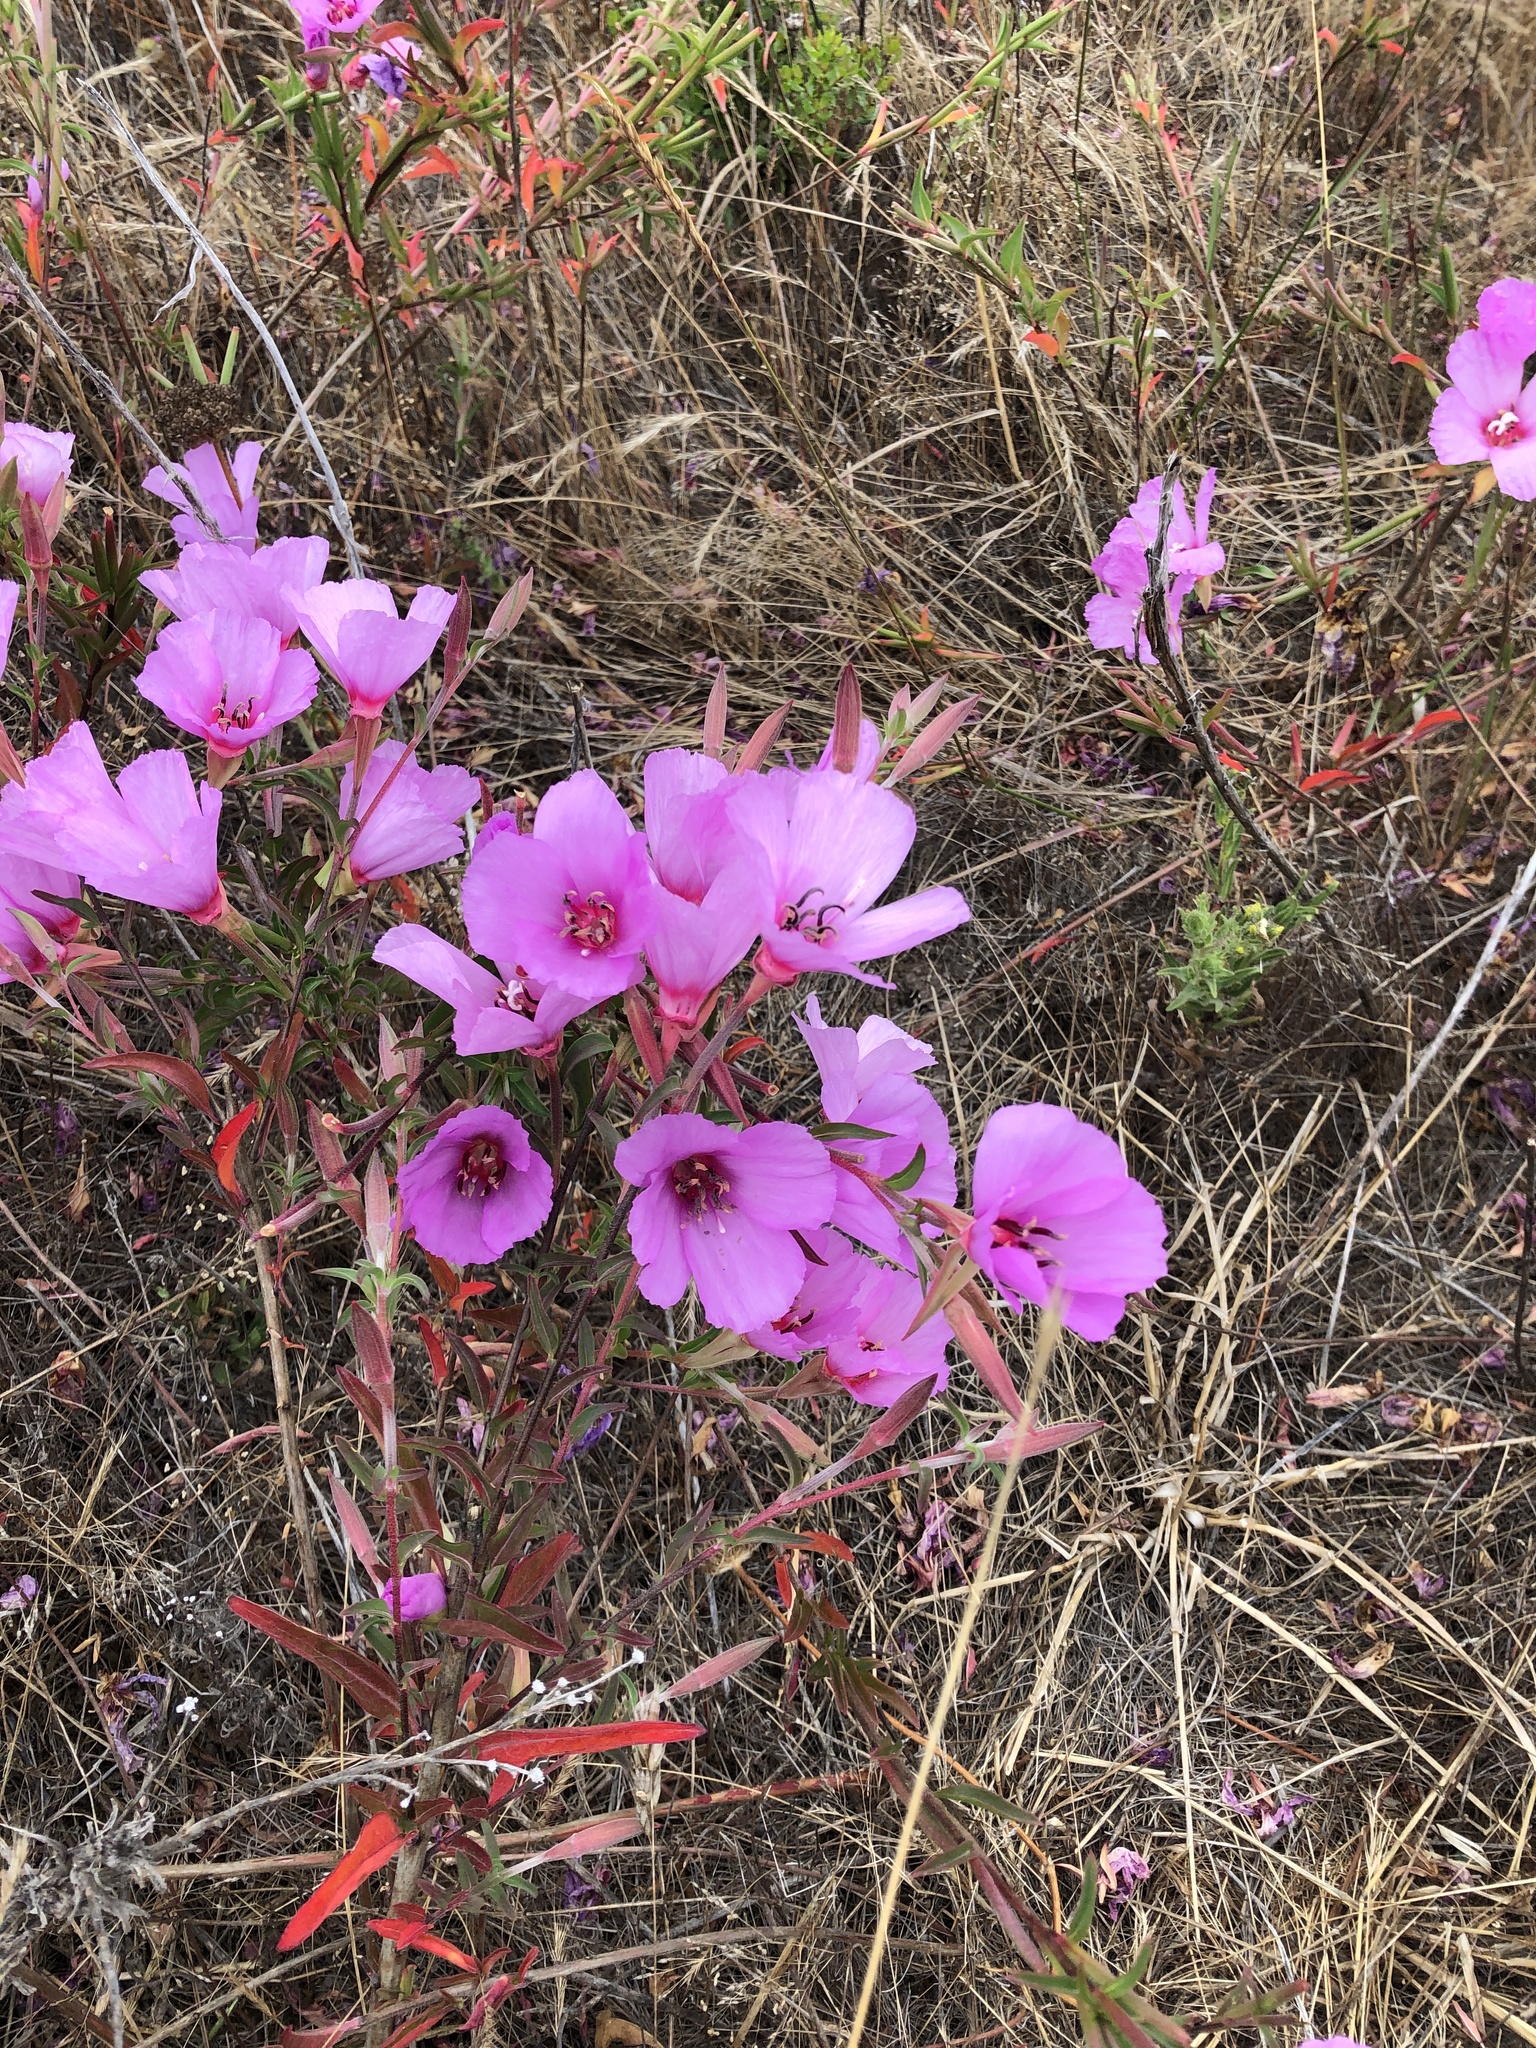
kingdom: Plantae
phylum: Tracheophyta
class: Magnoliopsida
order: Myrtales
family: Onagraceae
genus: Clarkia
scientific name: Clarkia amoena
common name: Godetia
